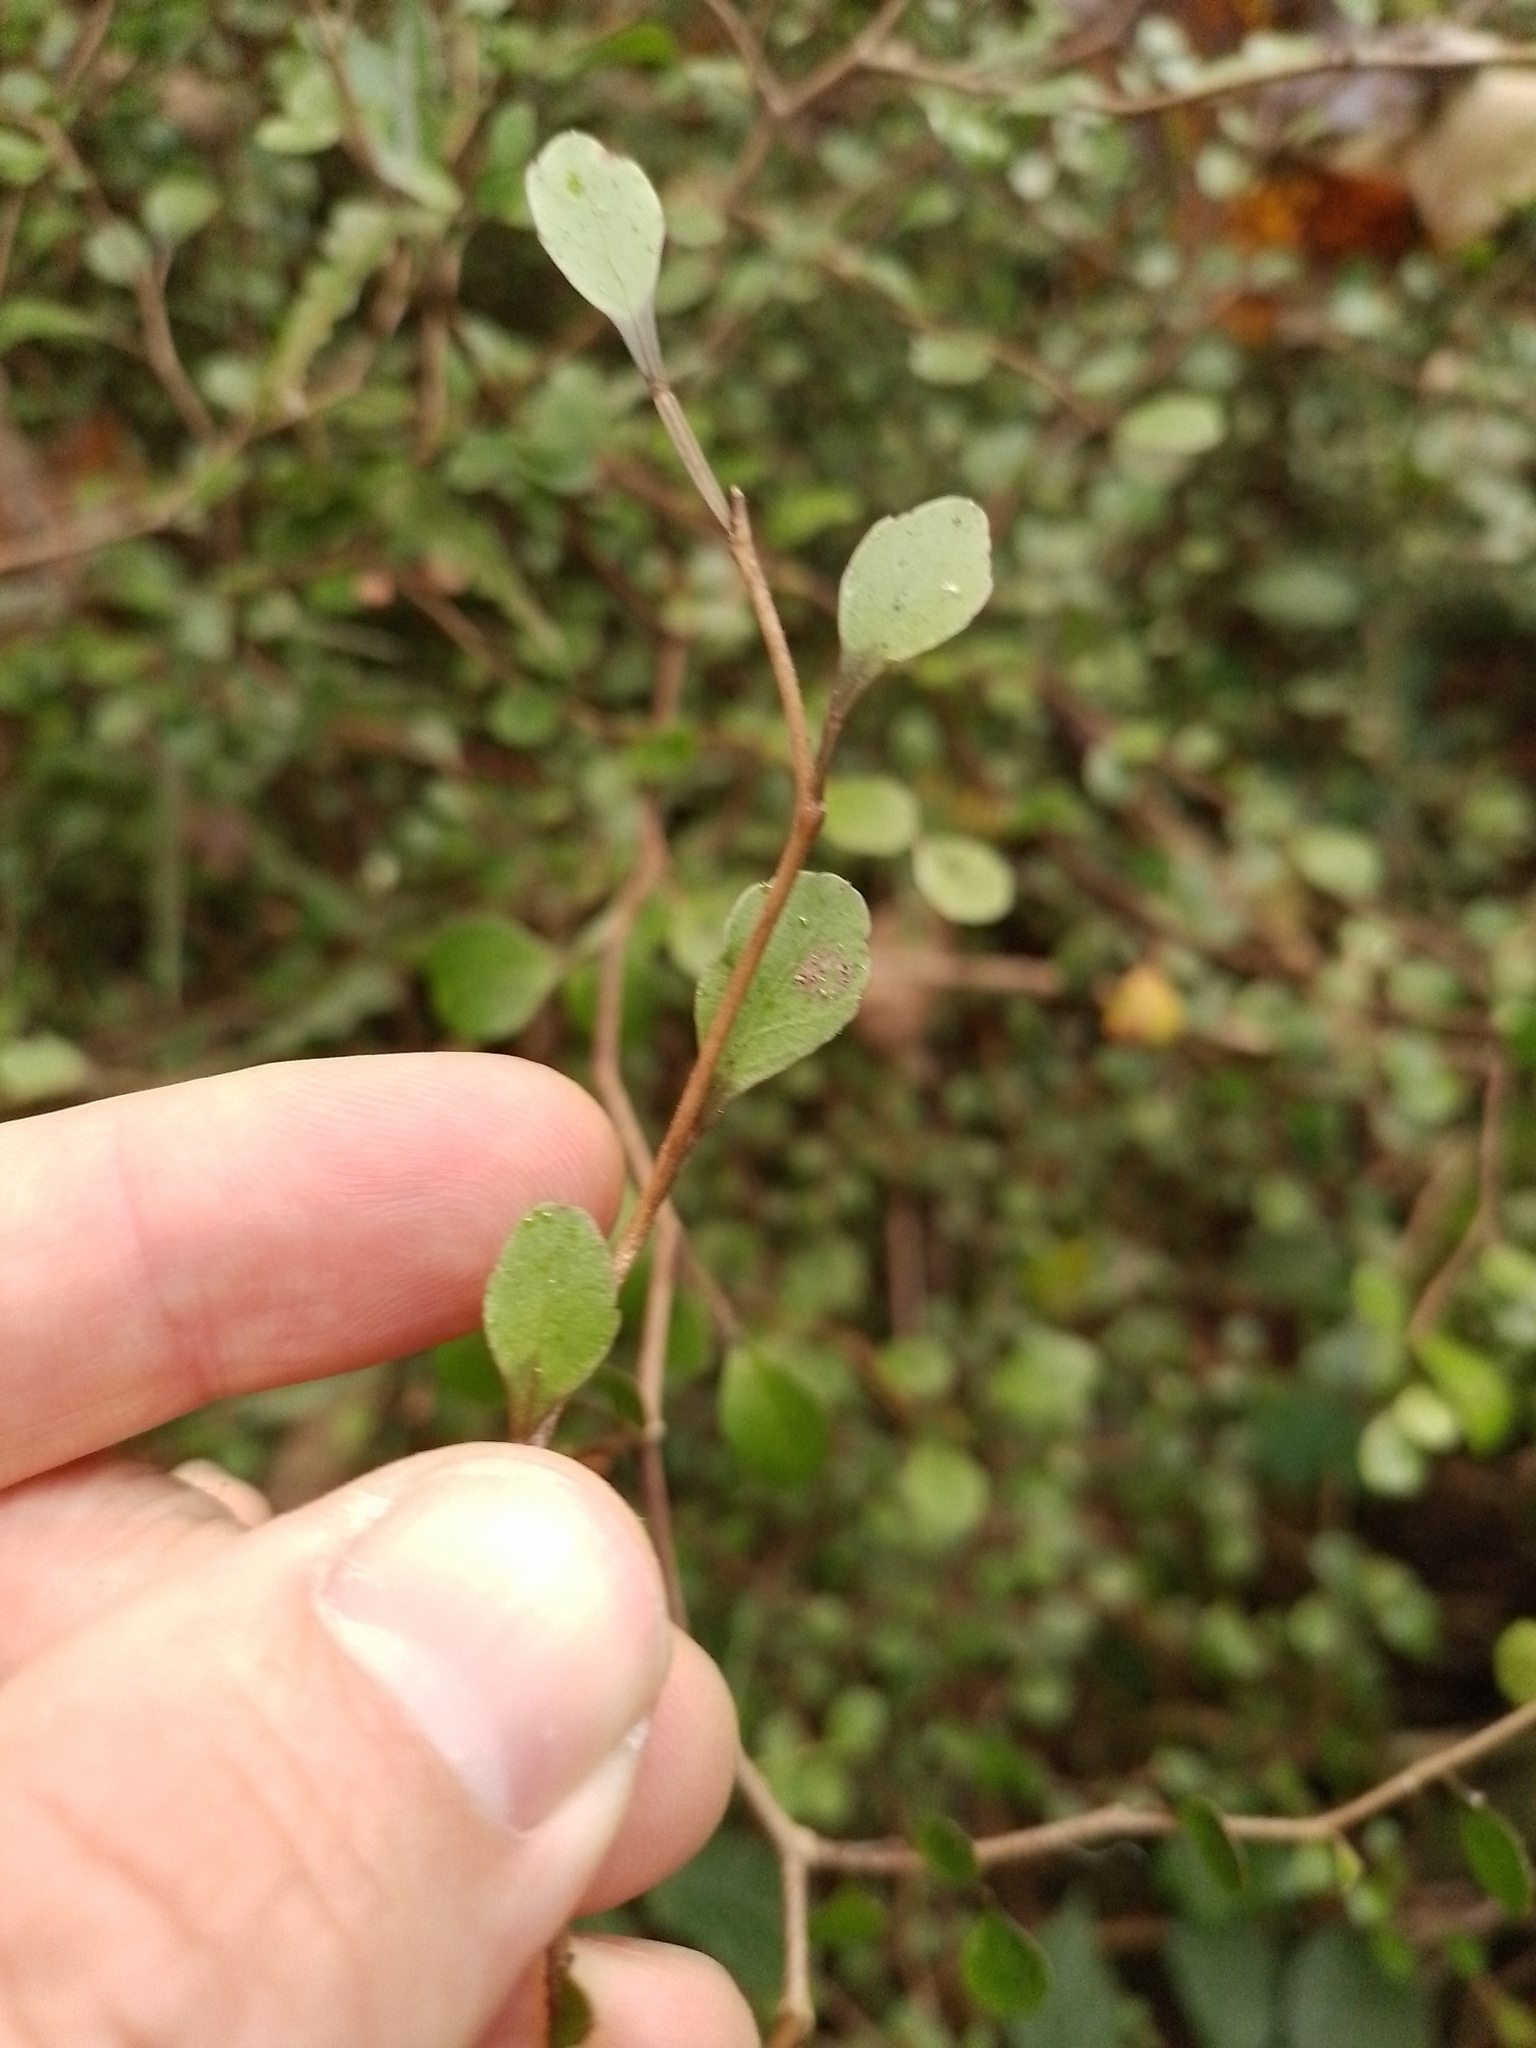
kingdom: Plantae
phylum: Tracheophyta
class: Magnoliopsida
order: Apiales
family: Araliaceae
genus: Raukaua
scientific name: Raukaua anomalus
